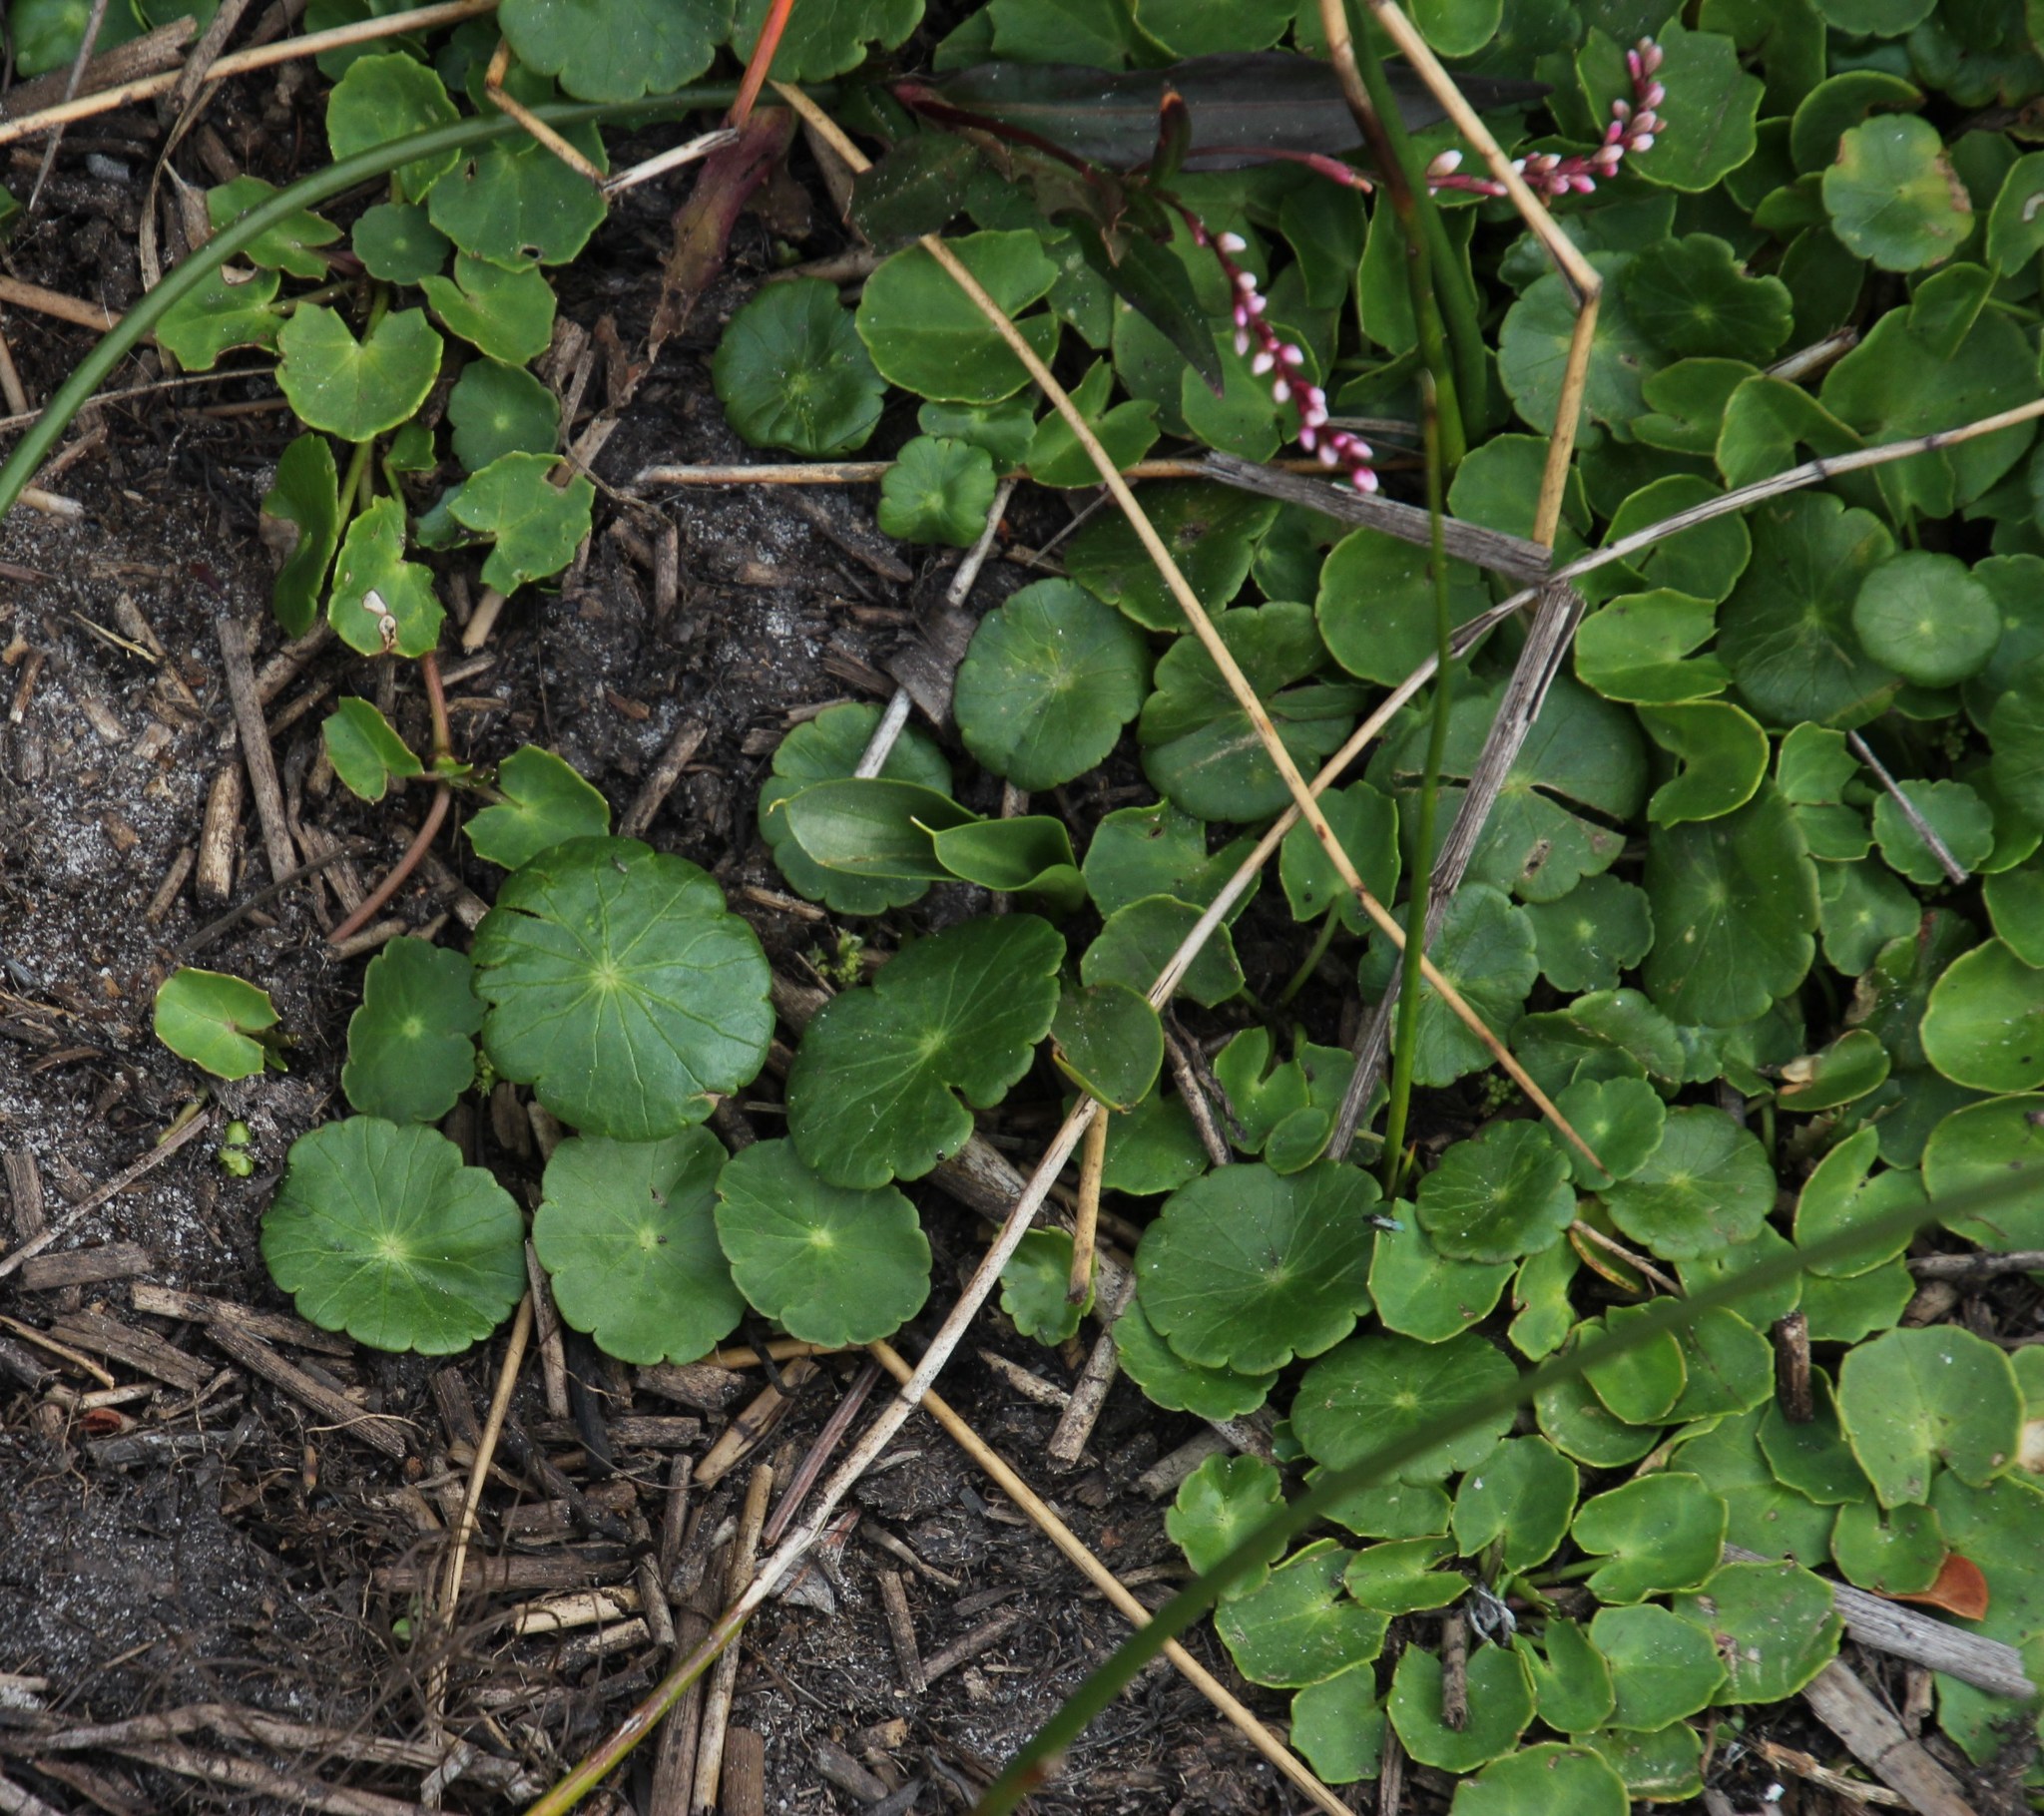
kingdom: Plantae
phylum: Tracheophyta
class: Magnoliopsida
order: Apiales
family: Araliaceae
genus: Hydrocotyle
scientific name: Hydrocotyle verticillata
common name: Whorled marshpennywort
